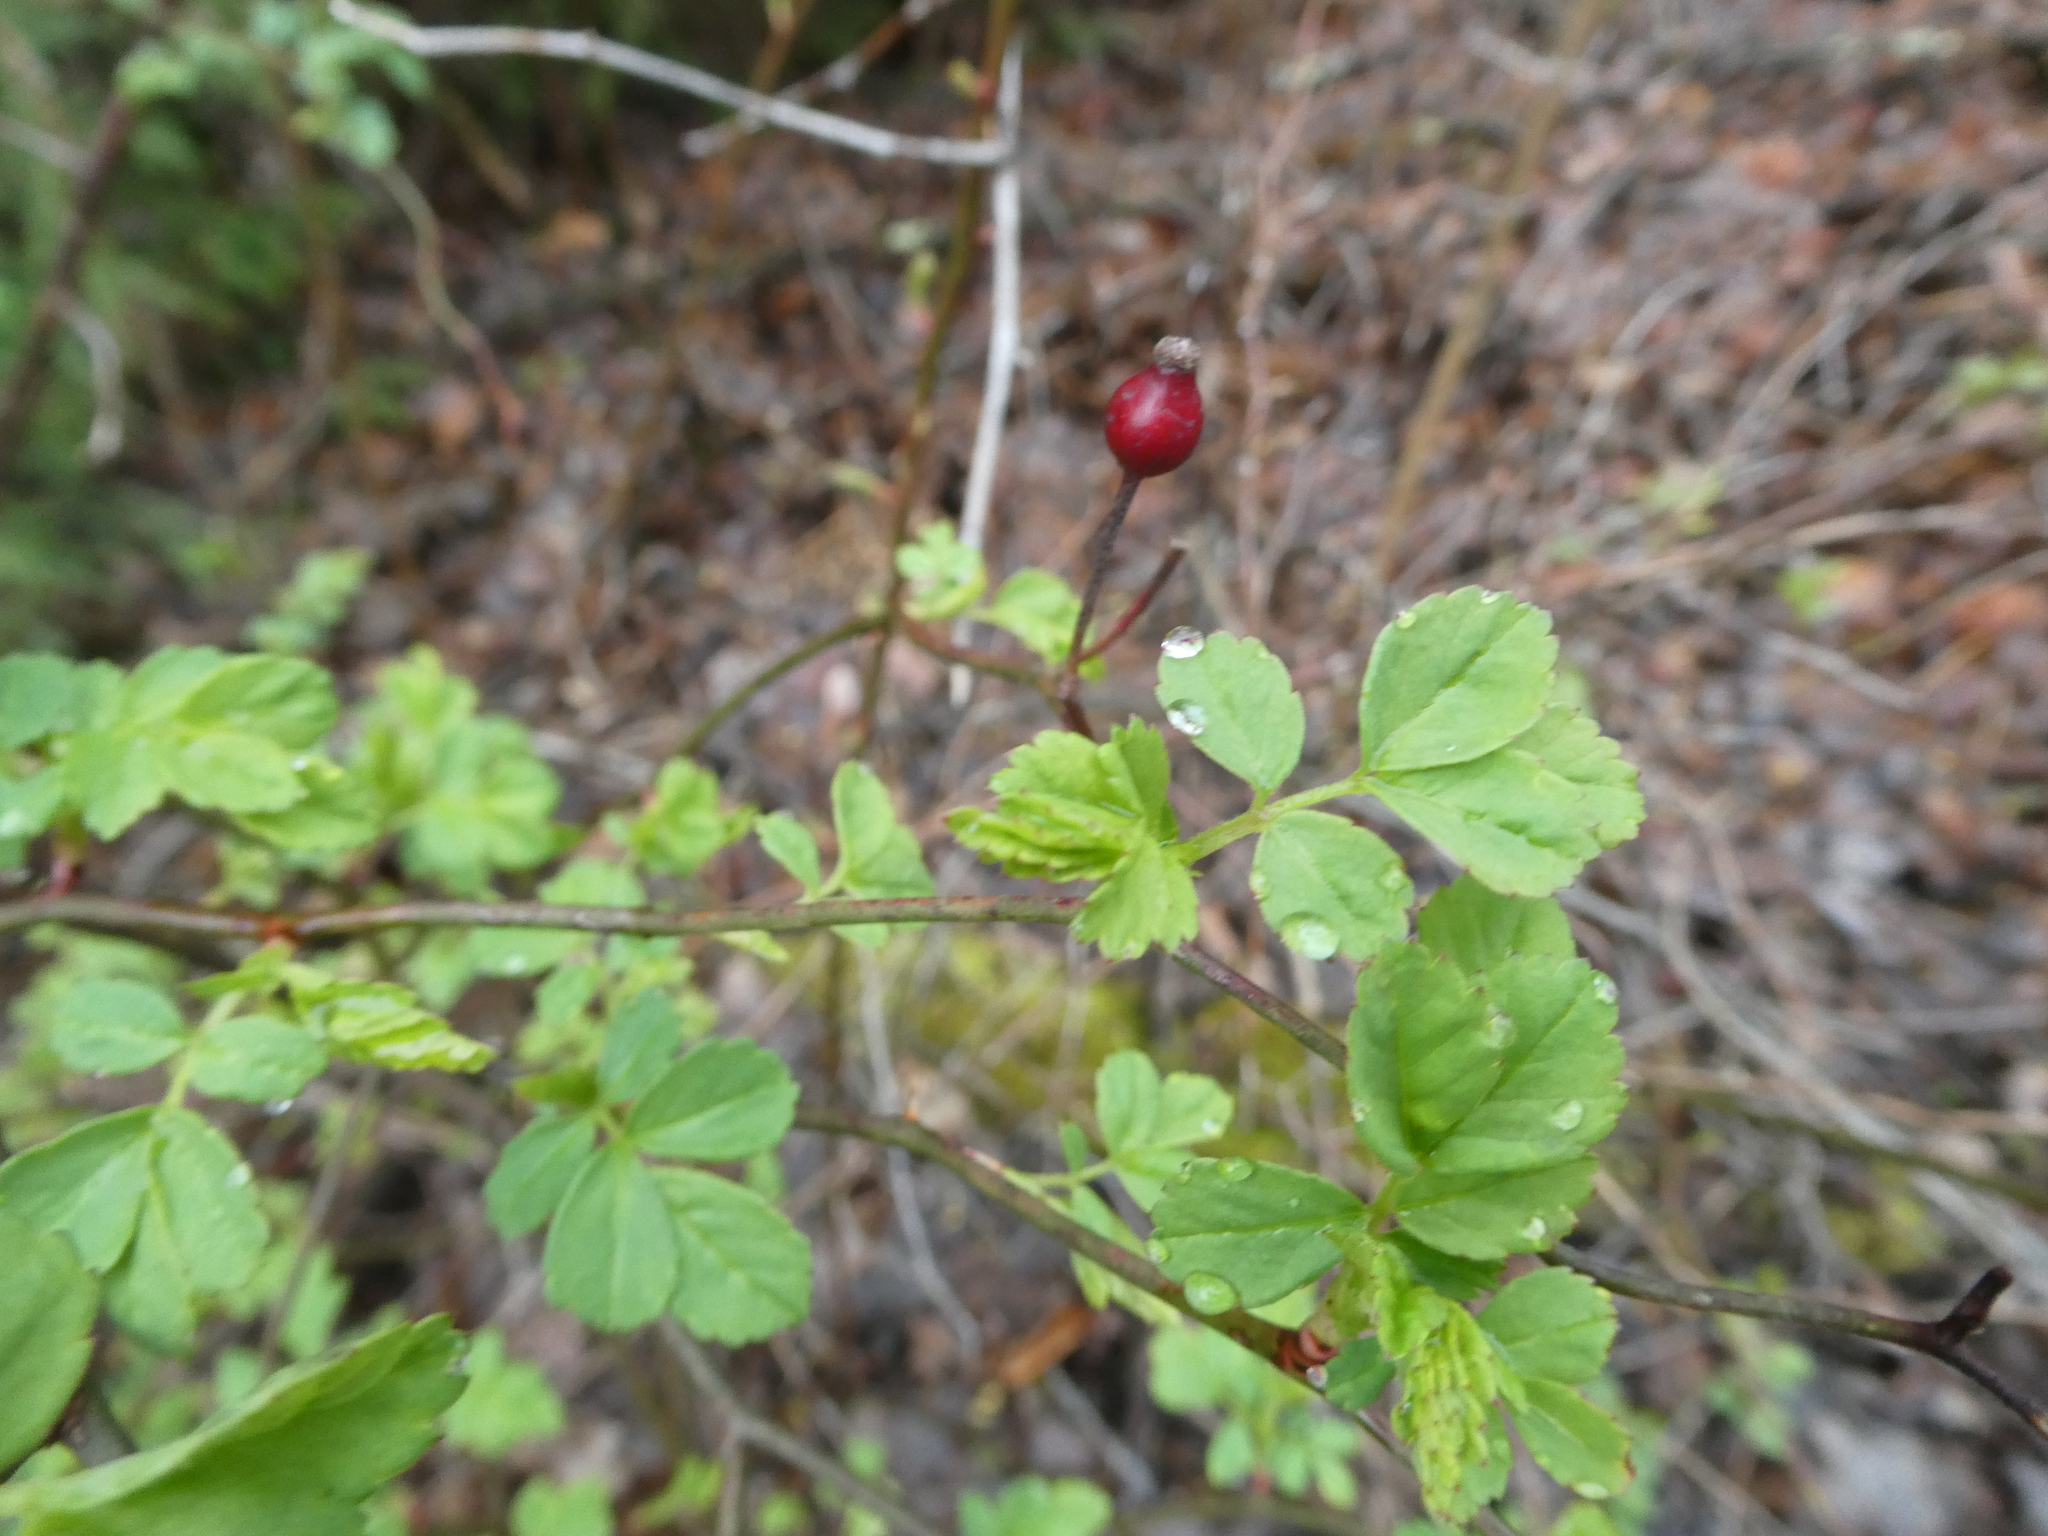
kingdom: Plantae
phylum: Tracheophyta
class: Magnoliopsida
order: Rosales
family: Rosaceae
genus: Rosa
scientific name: Rosa multiflora
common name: Multiflora rose
